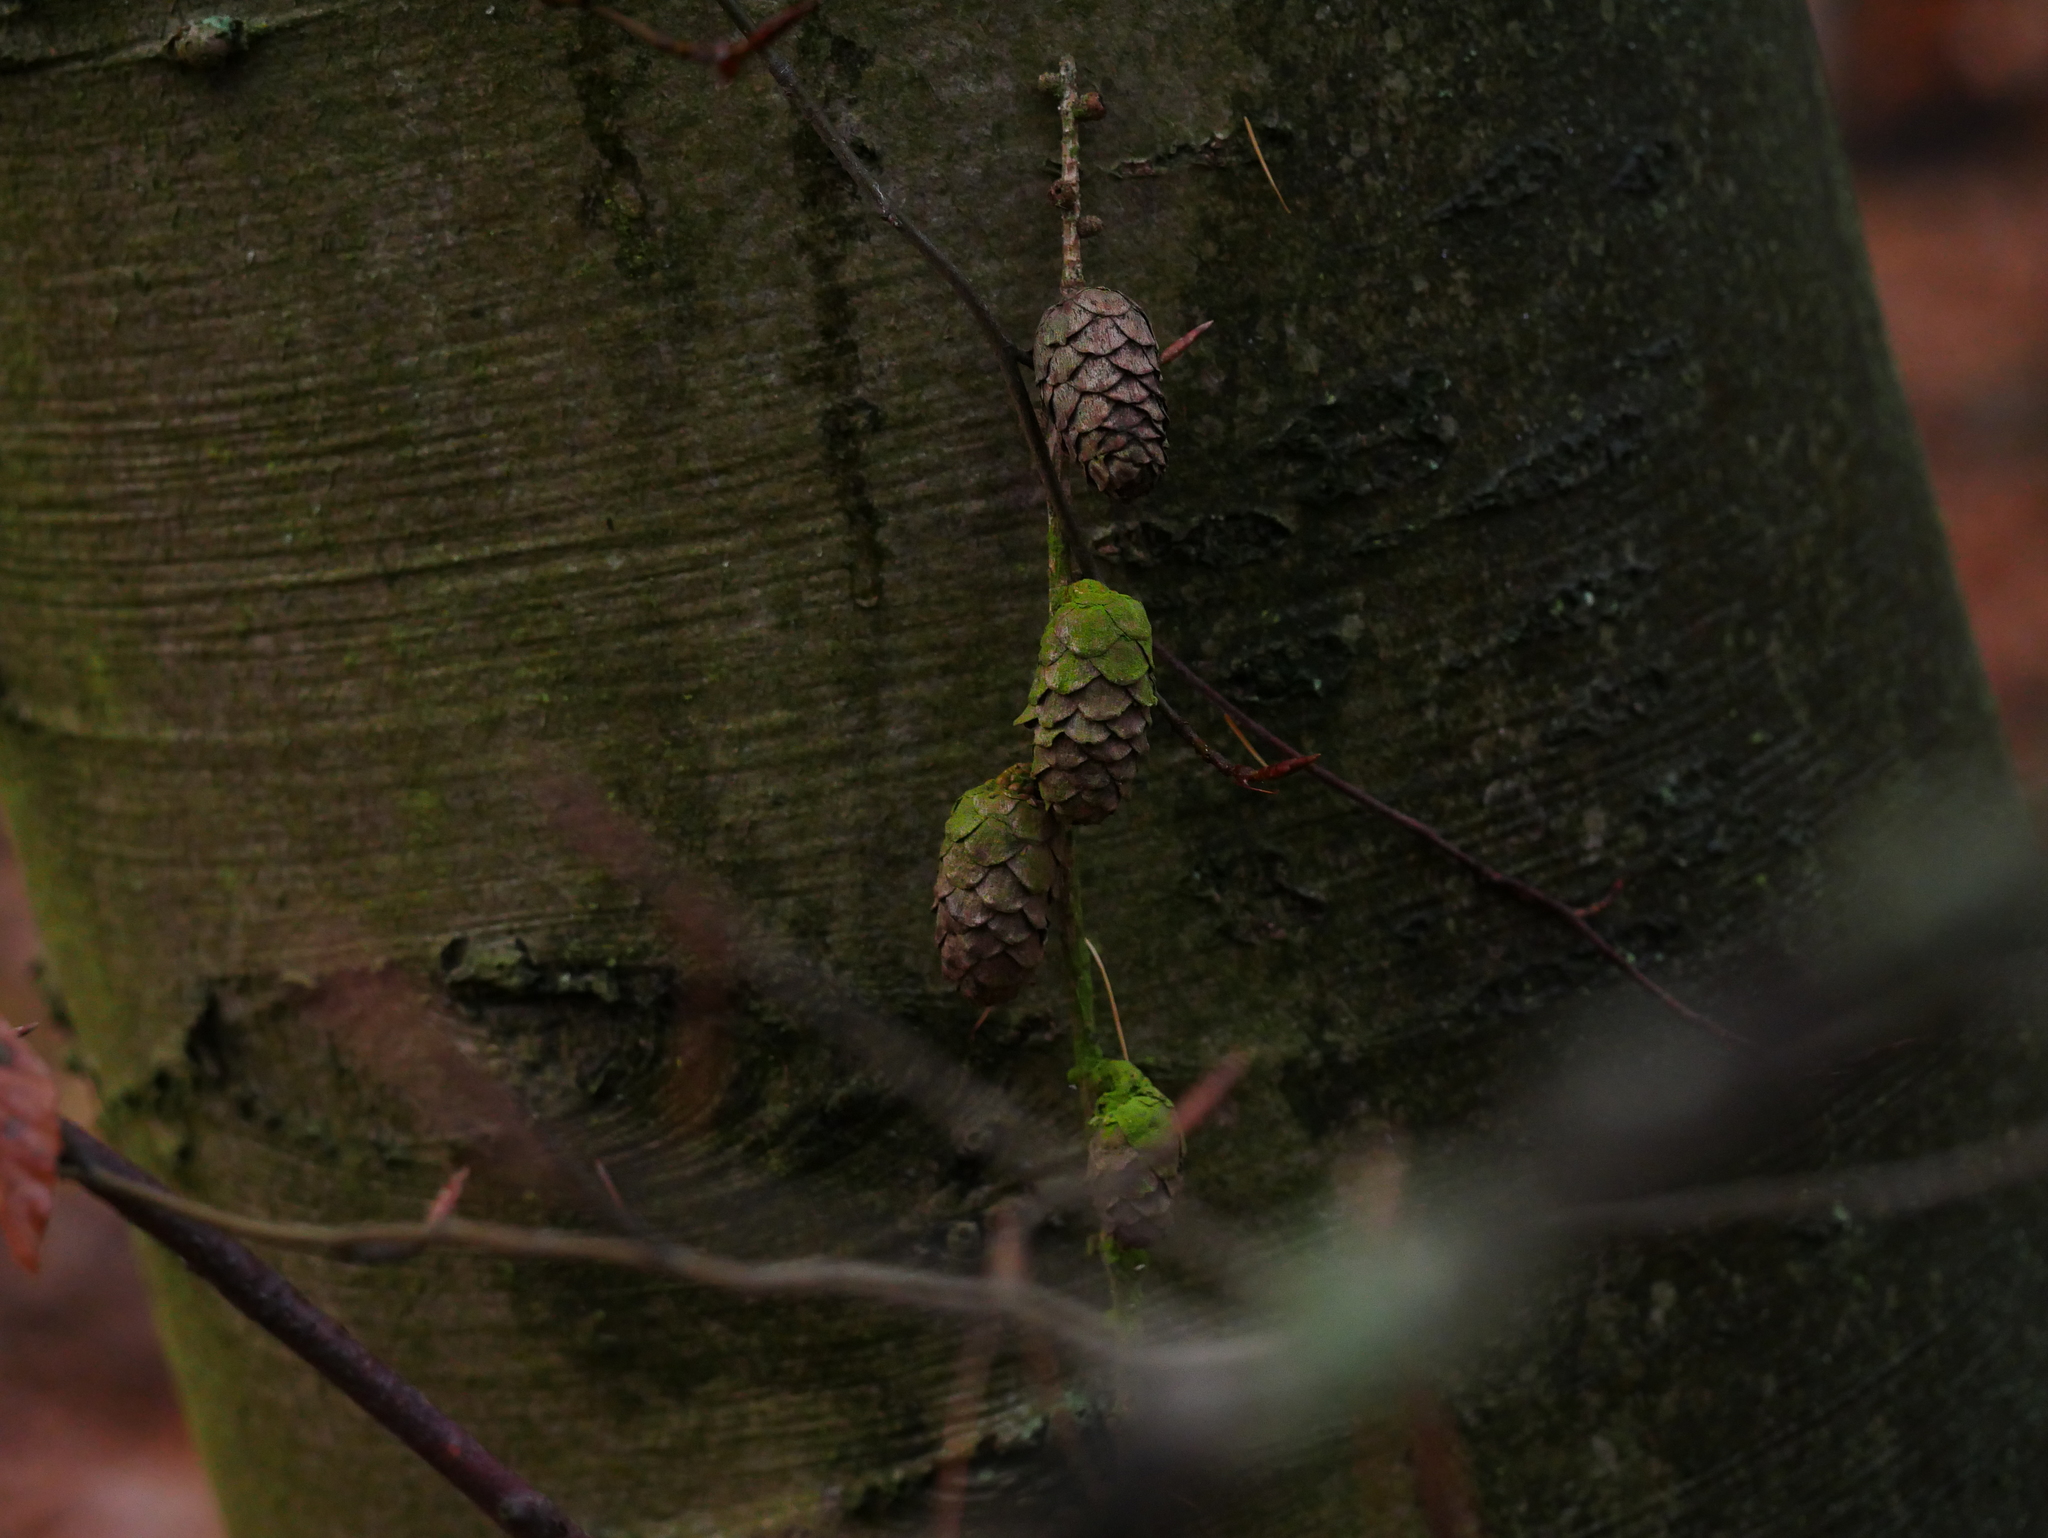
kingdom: Plantae
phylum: Tracheophyta
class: Pinopsida
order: Pinales
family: Pinaceae
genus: Larix
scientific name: Larix decidua
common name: European larch
